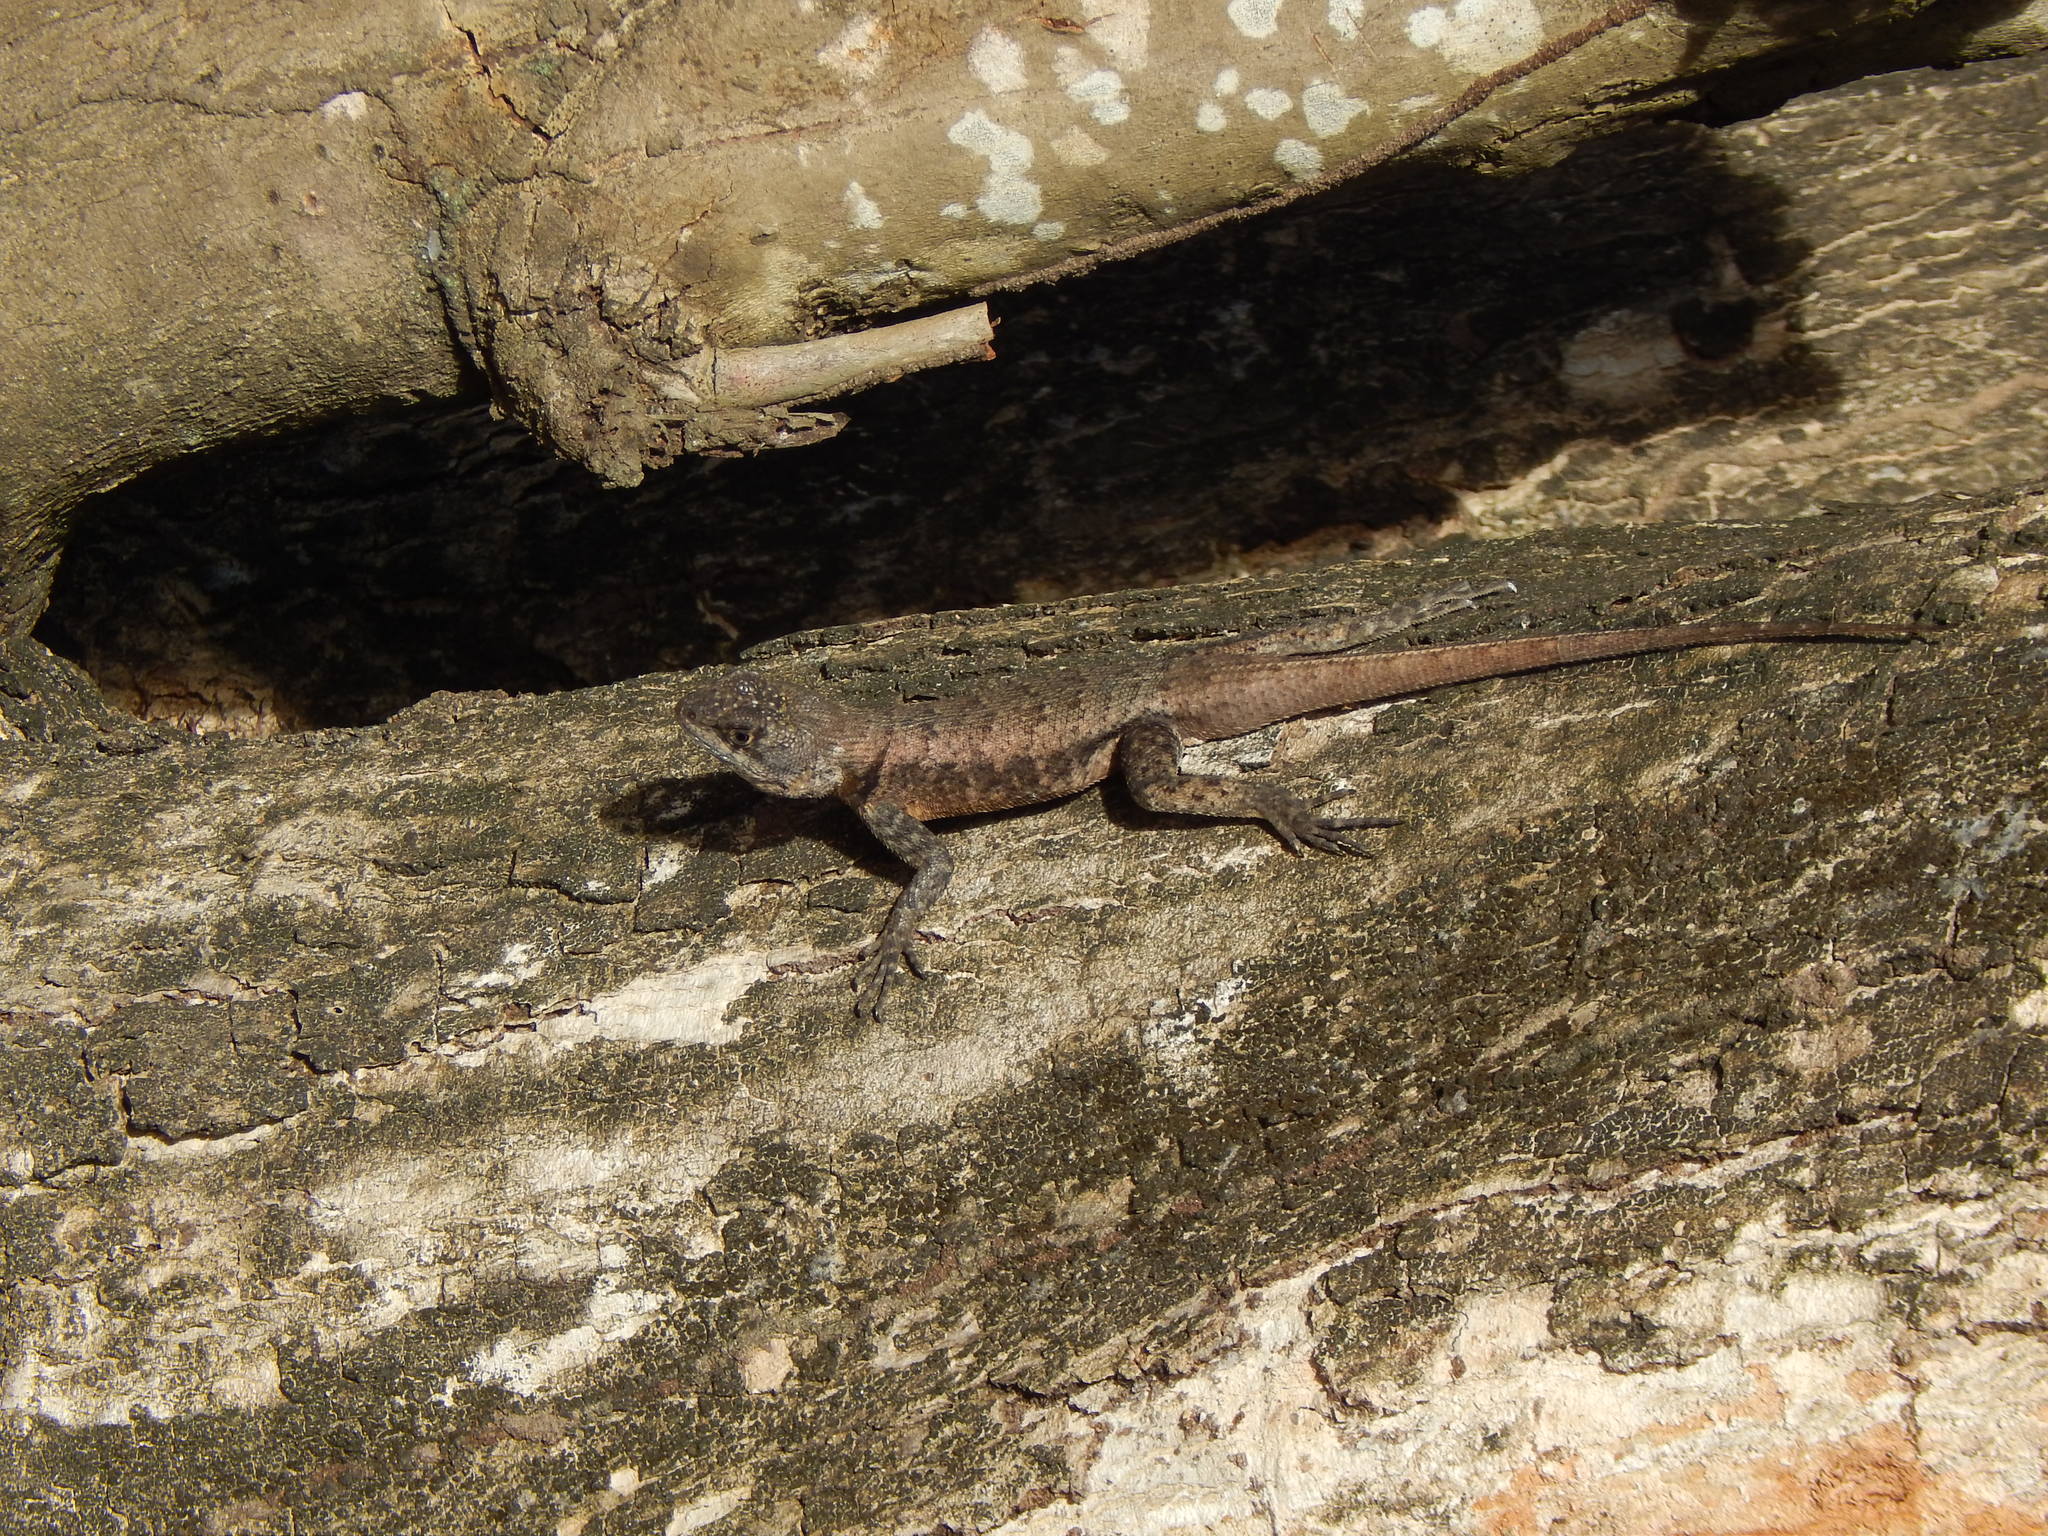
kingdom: Animalia
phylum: Chordata
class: Squamata
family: Tropiduridae
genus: Tropidurus
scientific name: Tropidurus hispidus
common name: Peters' lava lizard
